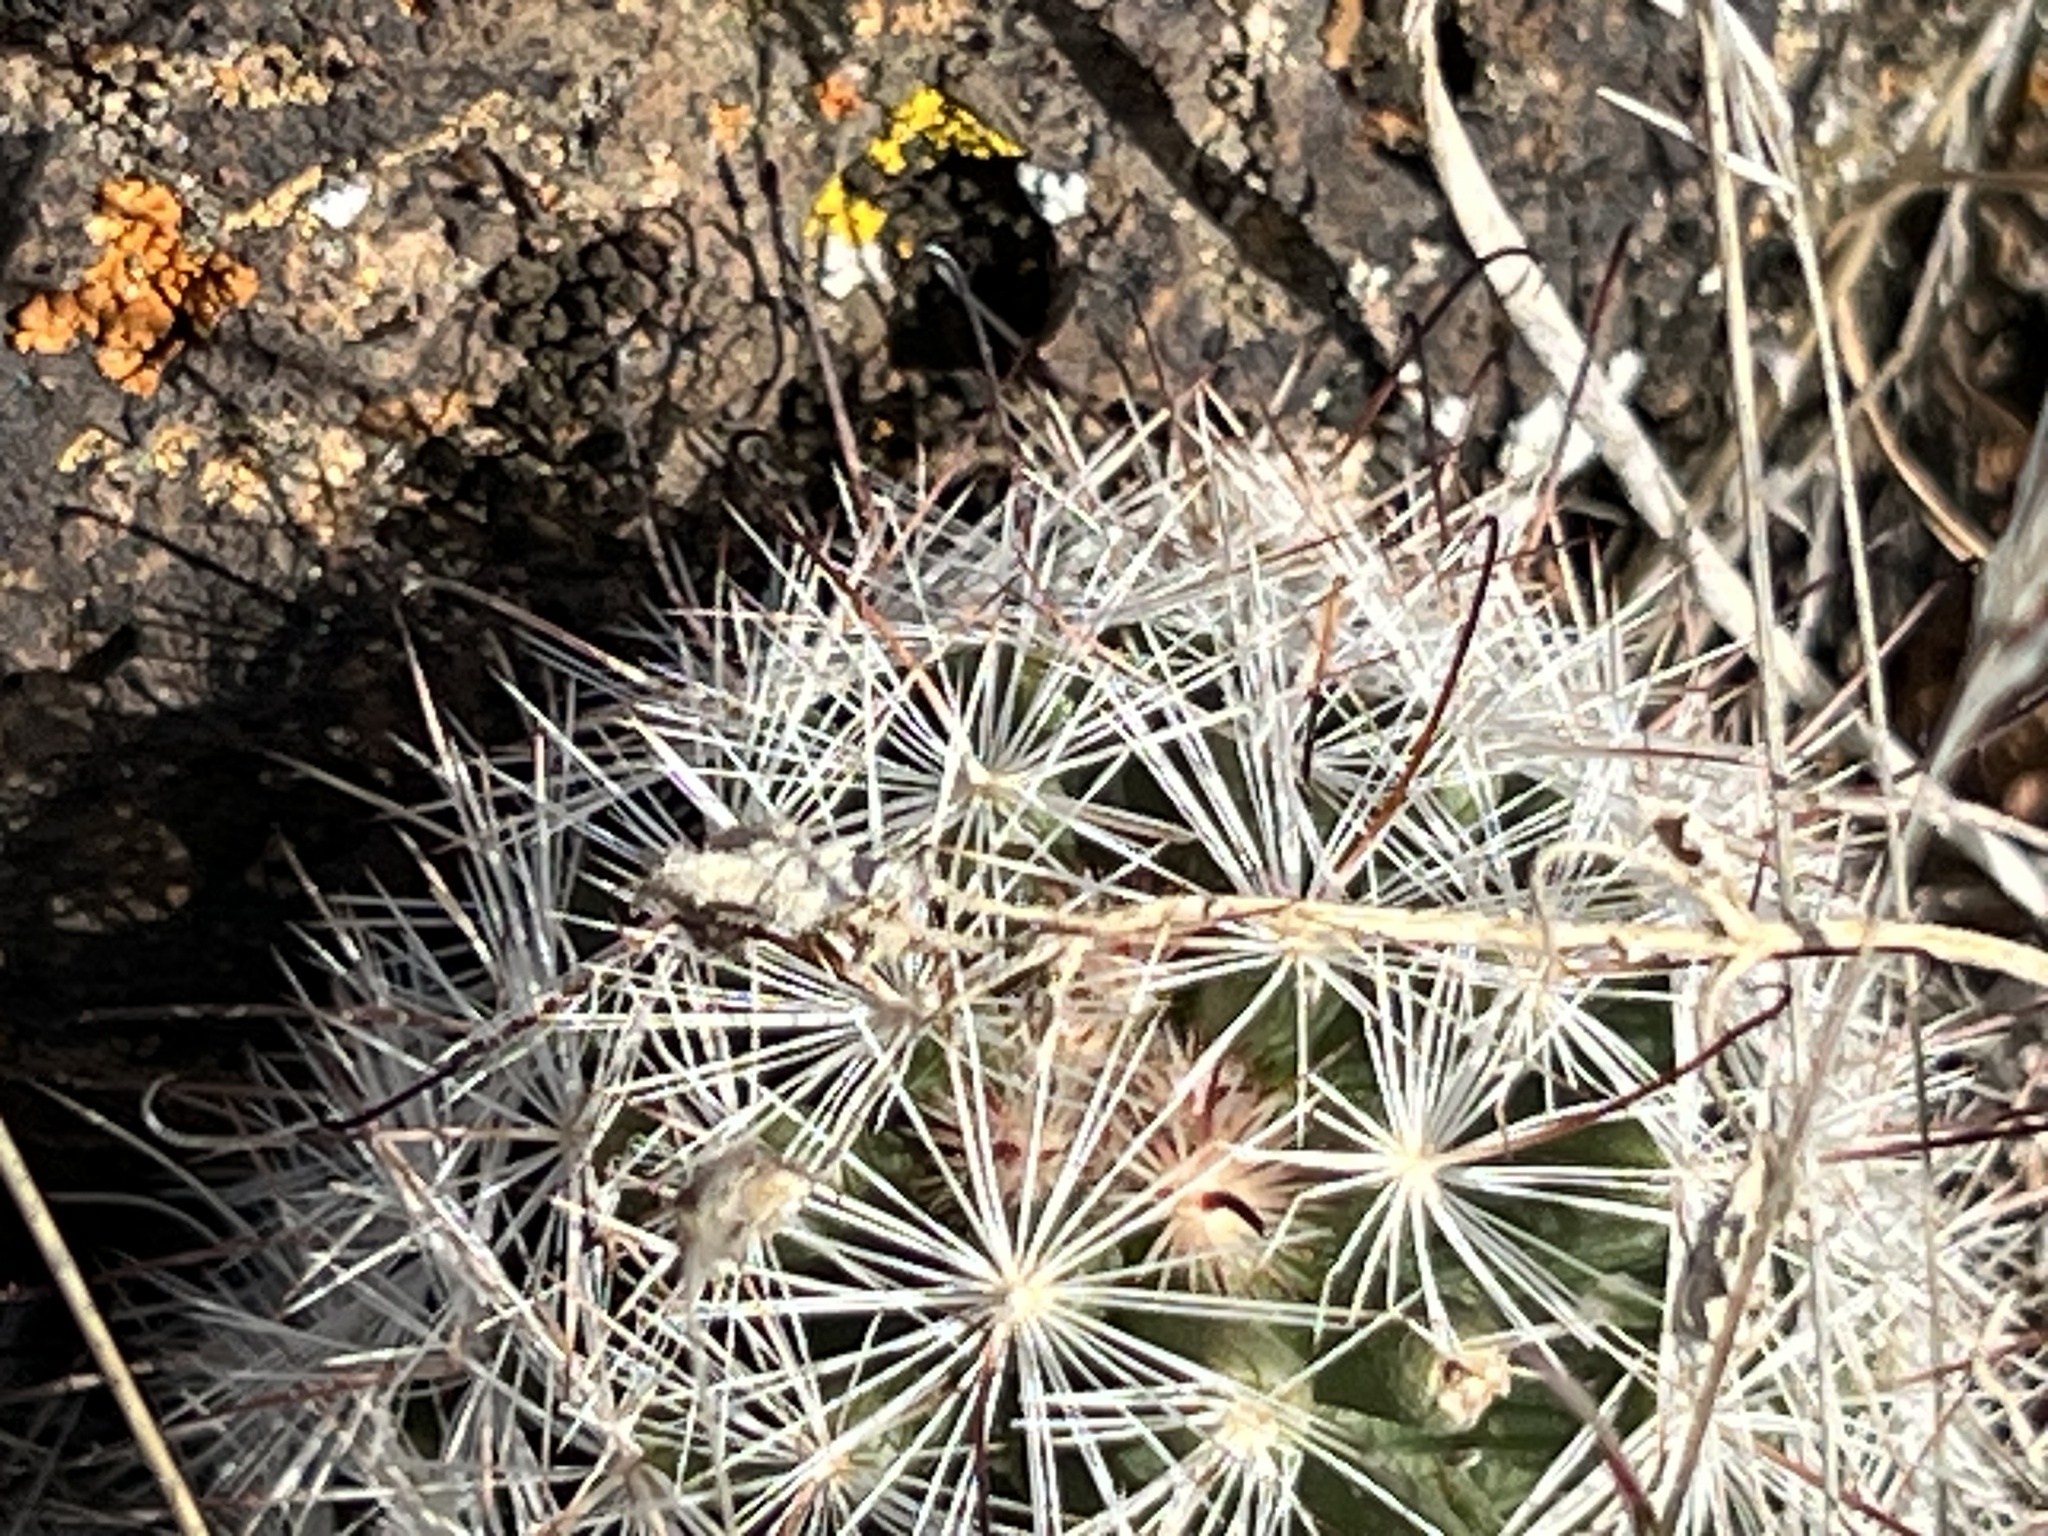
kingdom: Plantae
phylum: Tracheophyta
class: Magnoliopsida
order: Caryophyllales
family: Cactaceae
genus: Cochemiea
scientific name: Cochemiea tetrancistra
